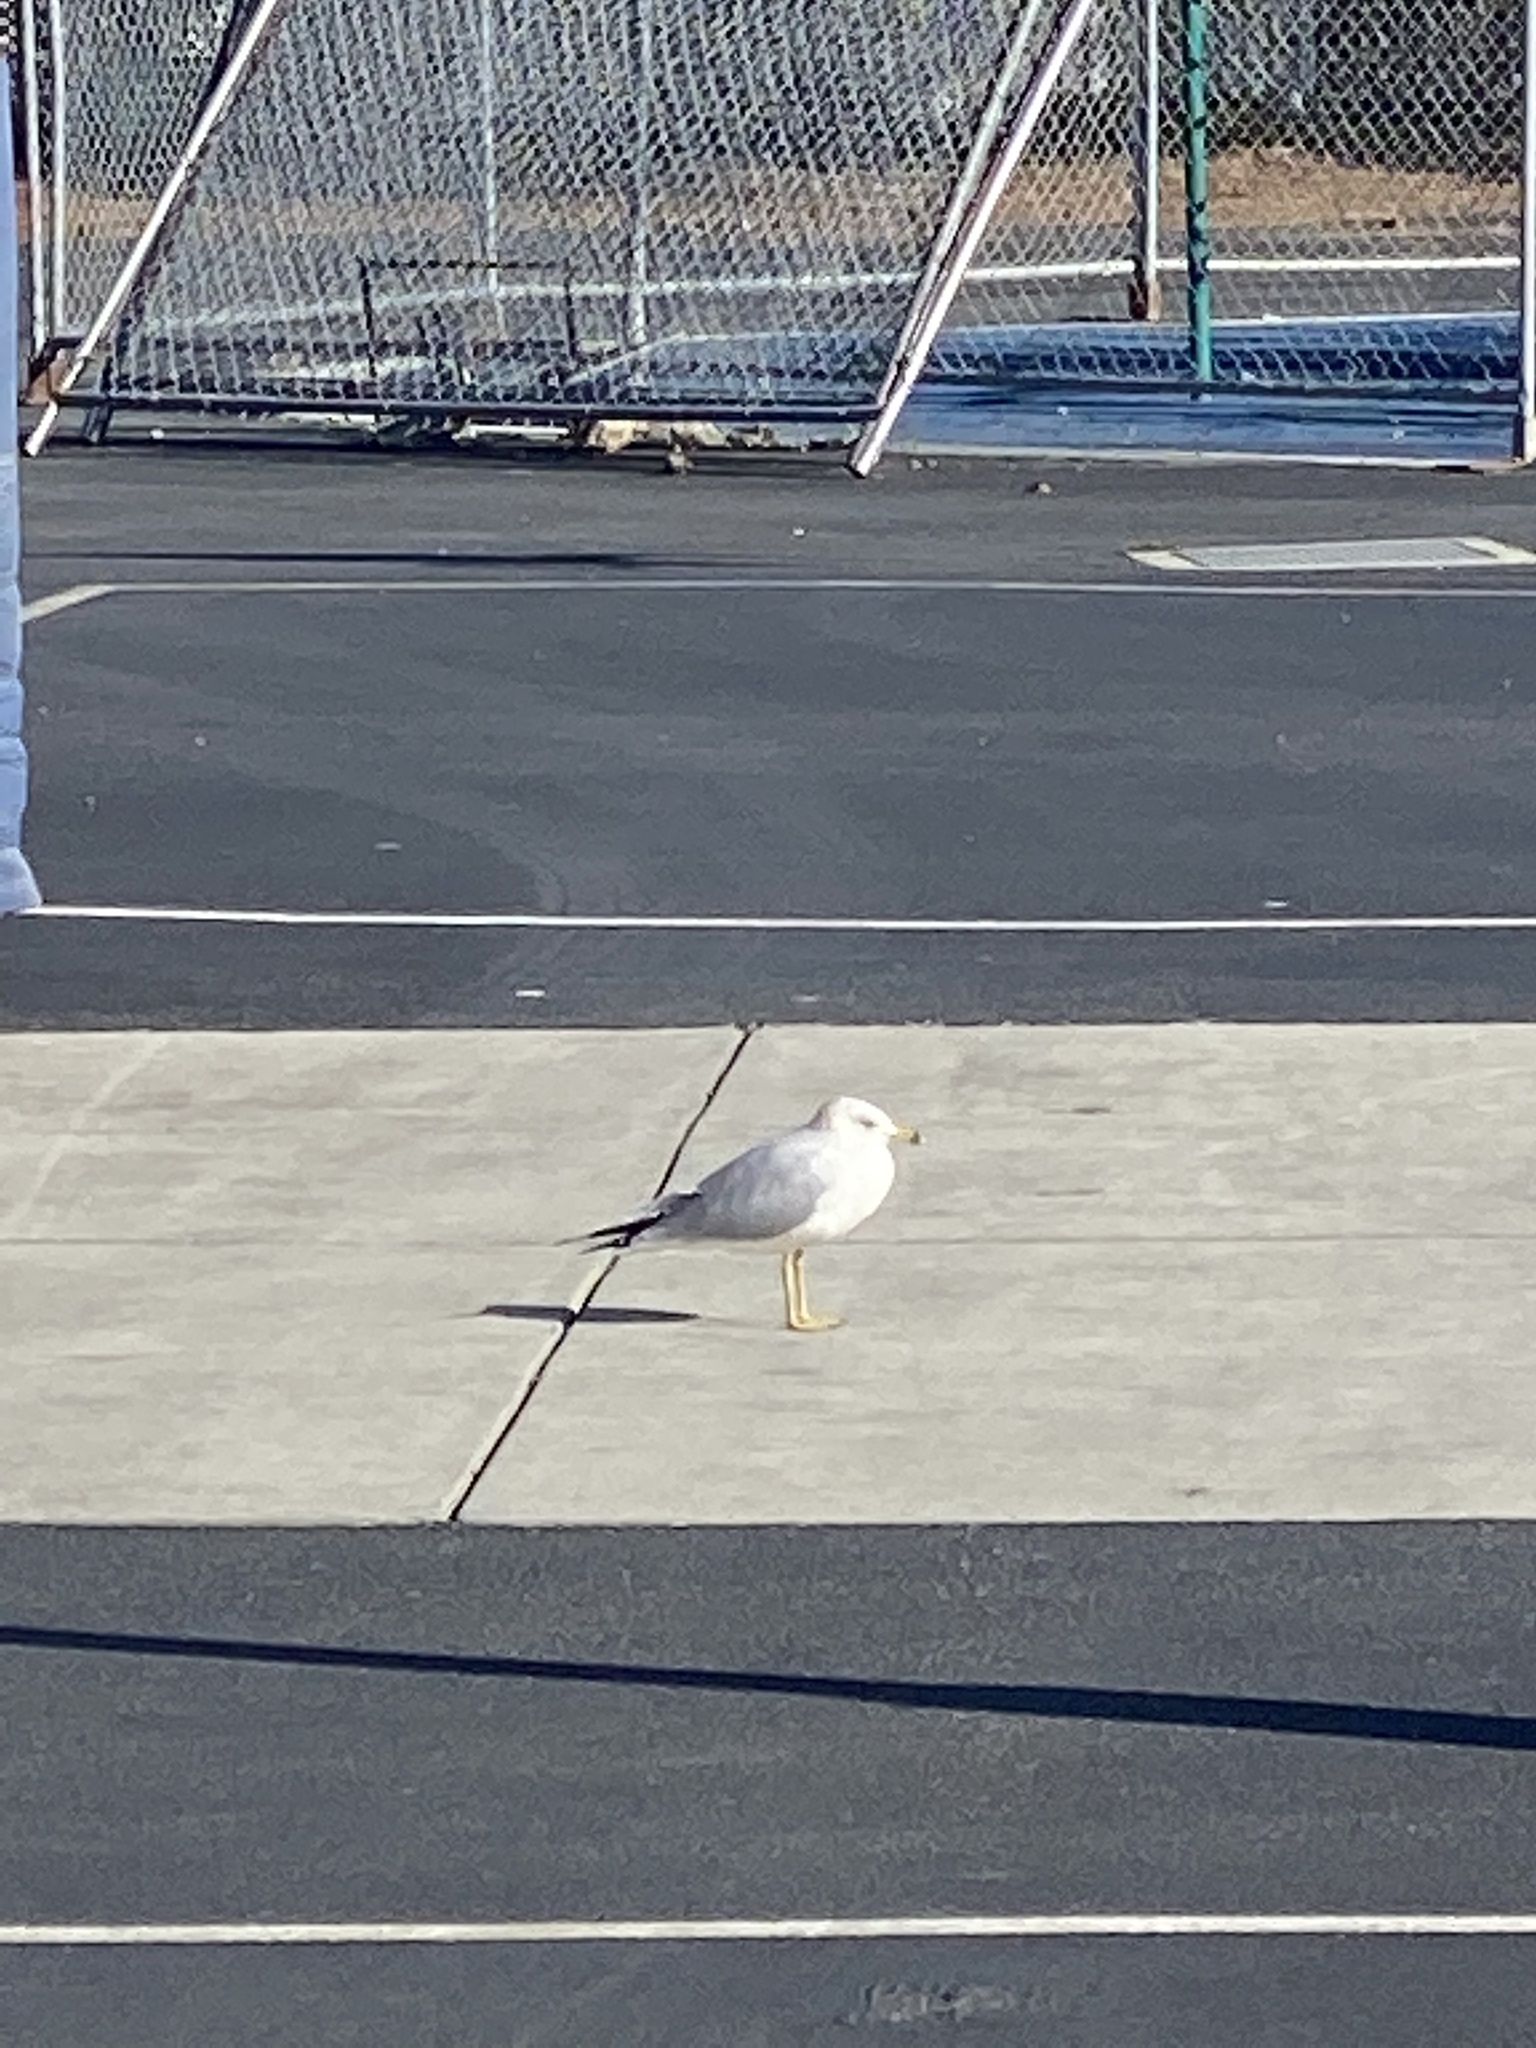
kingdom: Animalia
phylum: Chordata
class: Aves
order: Charadriiformes
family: Laridae
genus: Larus
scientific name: Larus delawarensis
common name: Ring-billed gull
